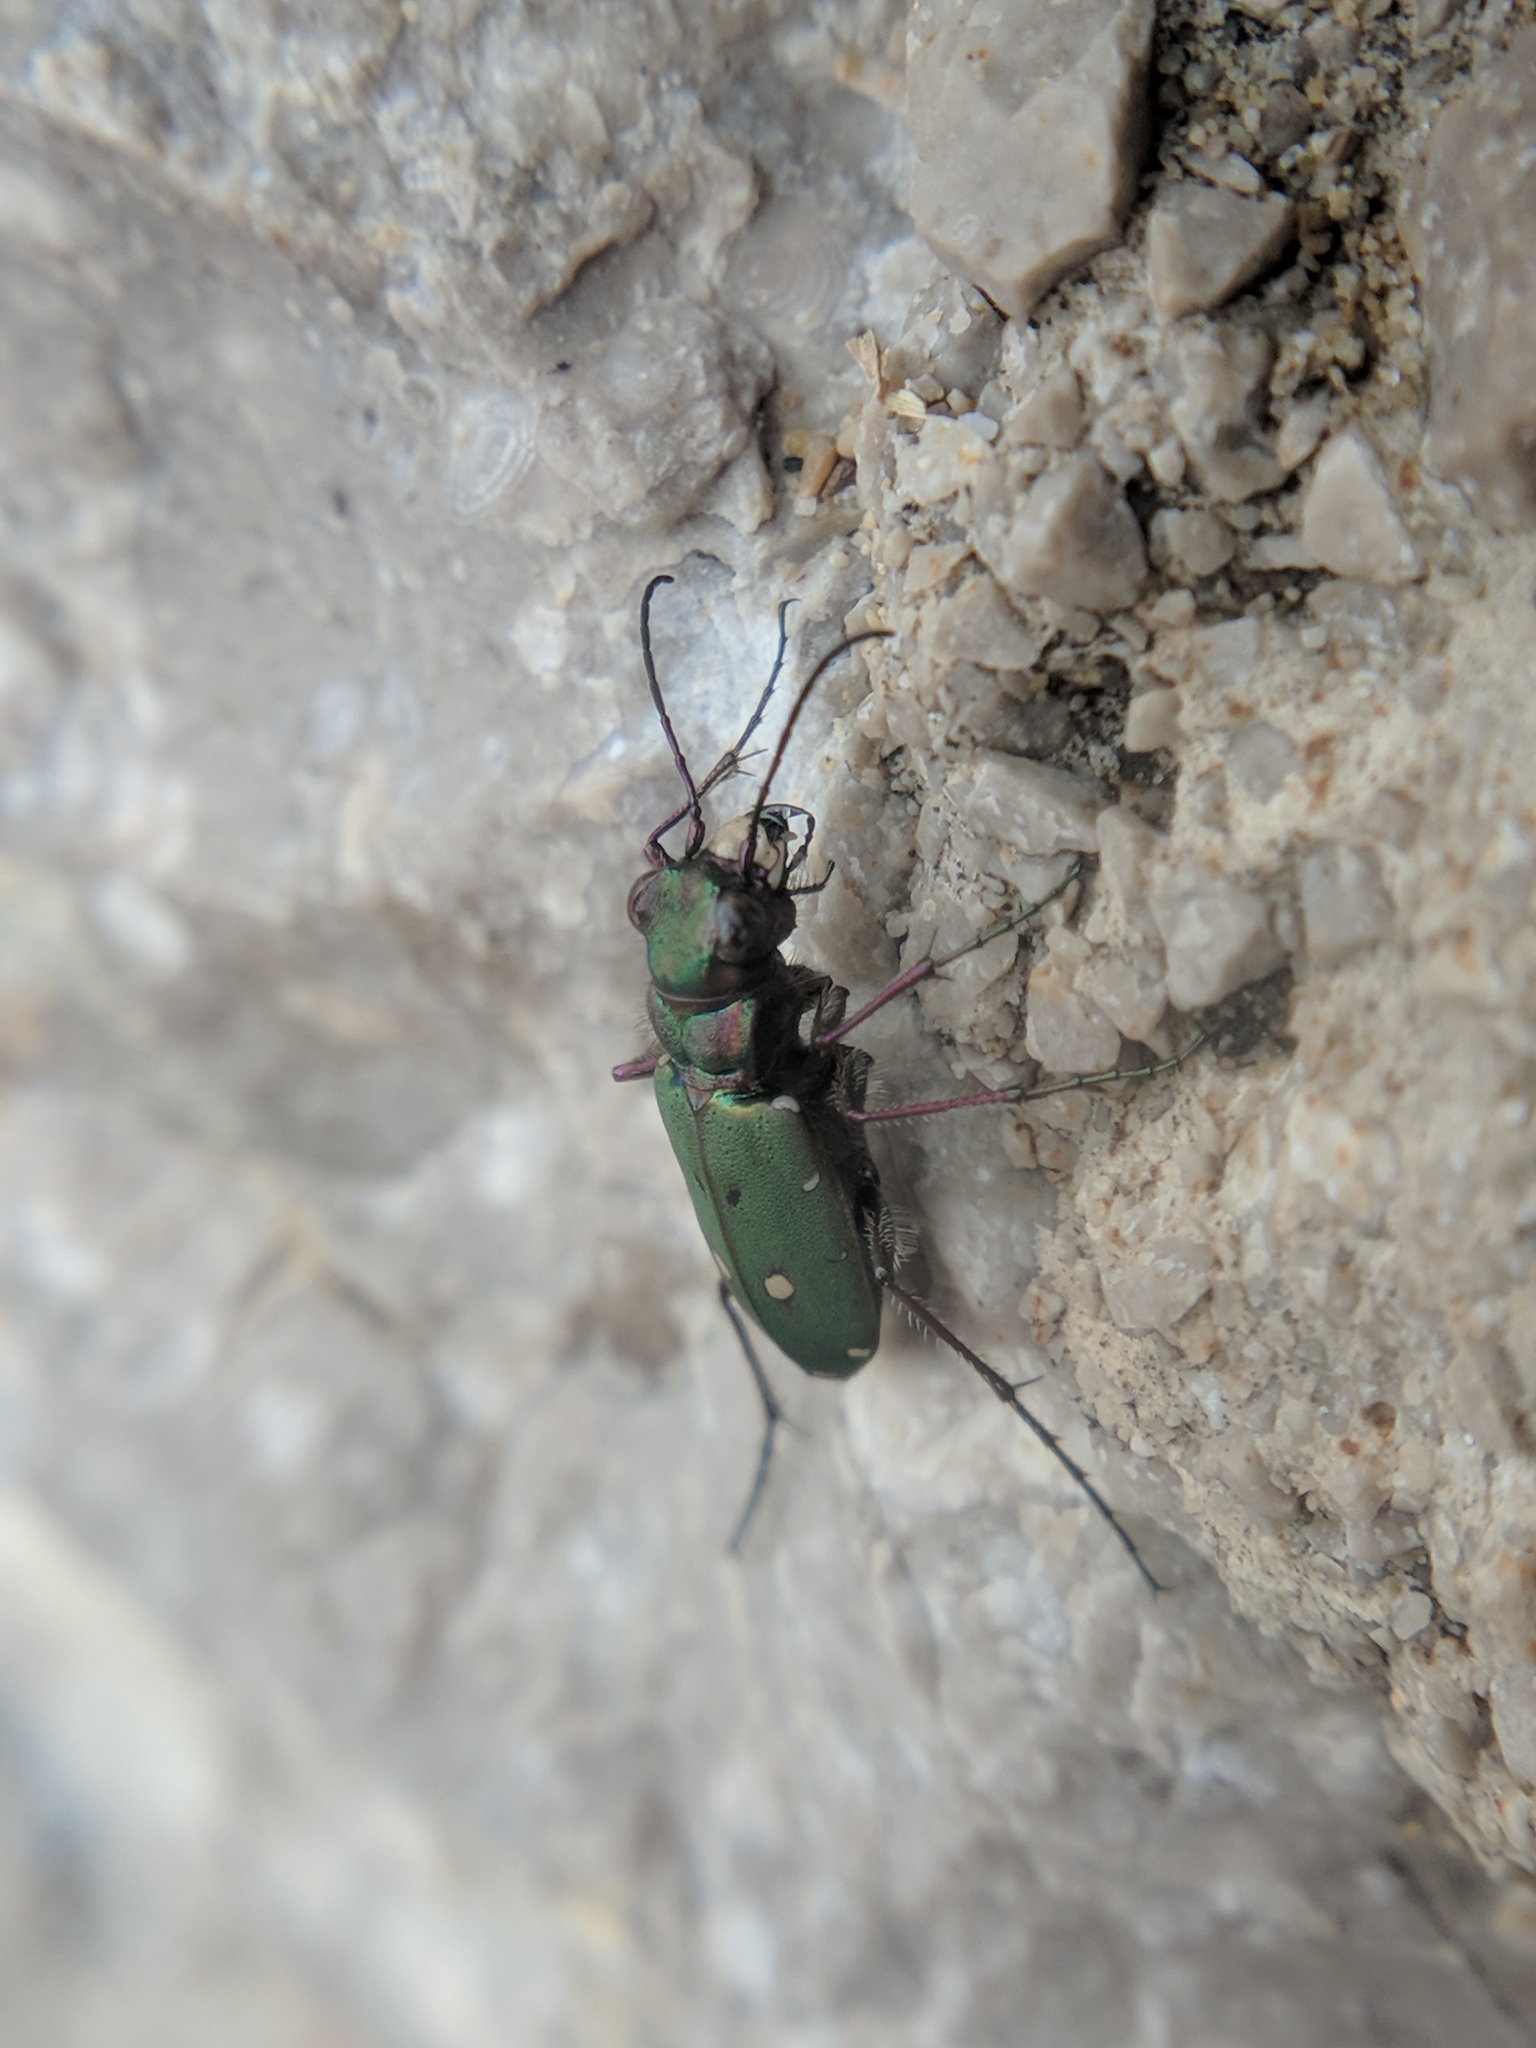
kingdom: Animalia
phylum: Arthropoda
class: Insecta
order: Coleoptera
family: Carabidae
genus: Cicindela
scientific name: Cicindela campestris
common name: Common tiger beetle
